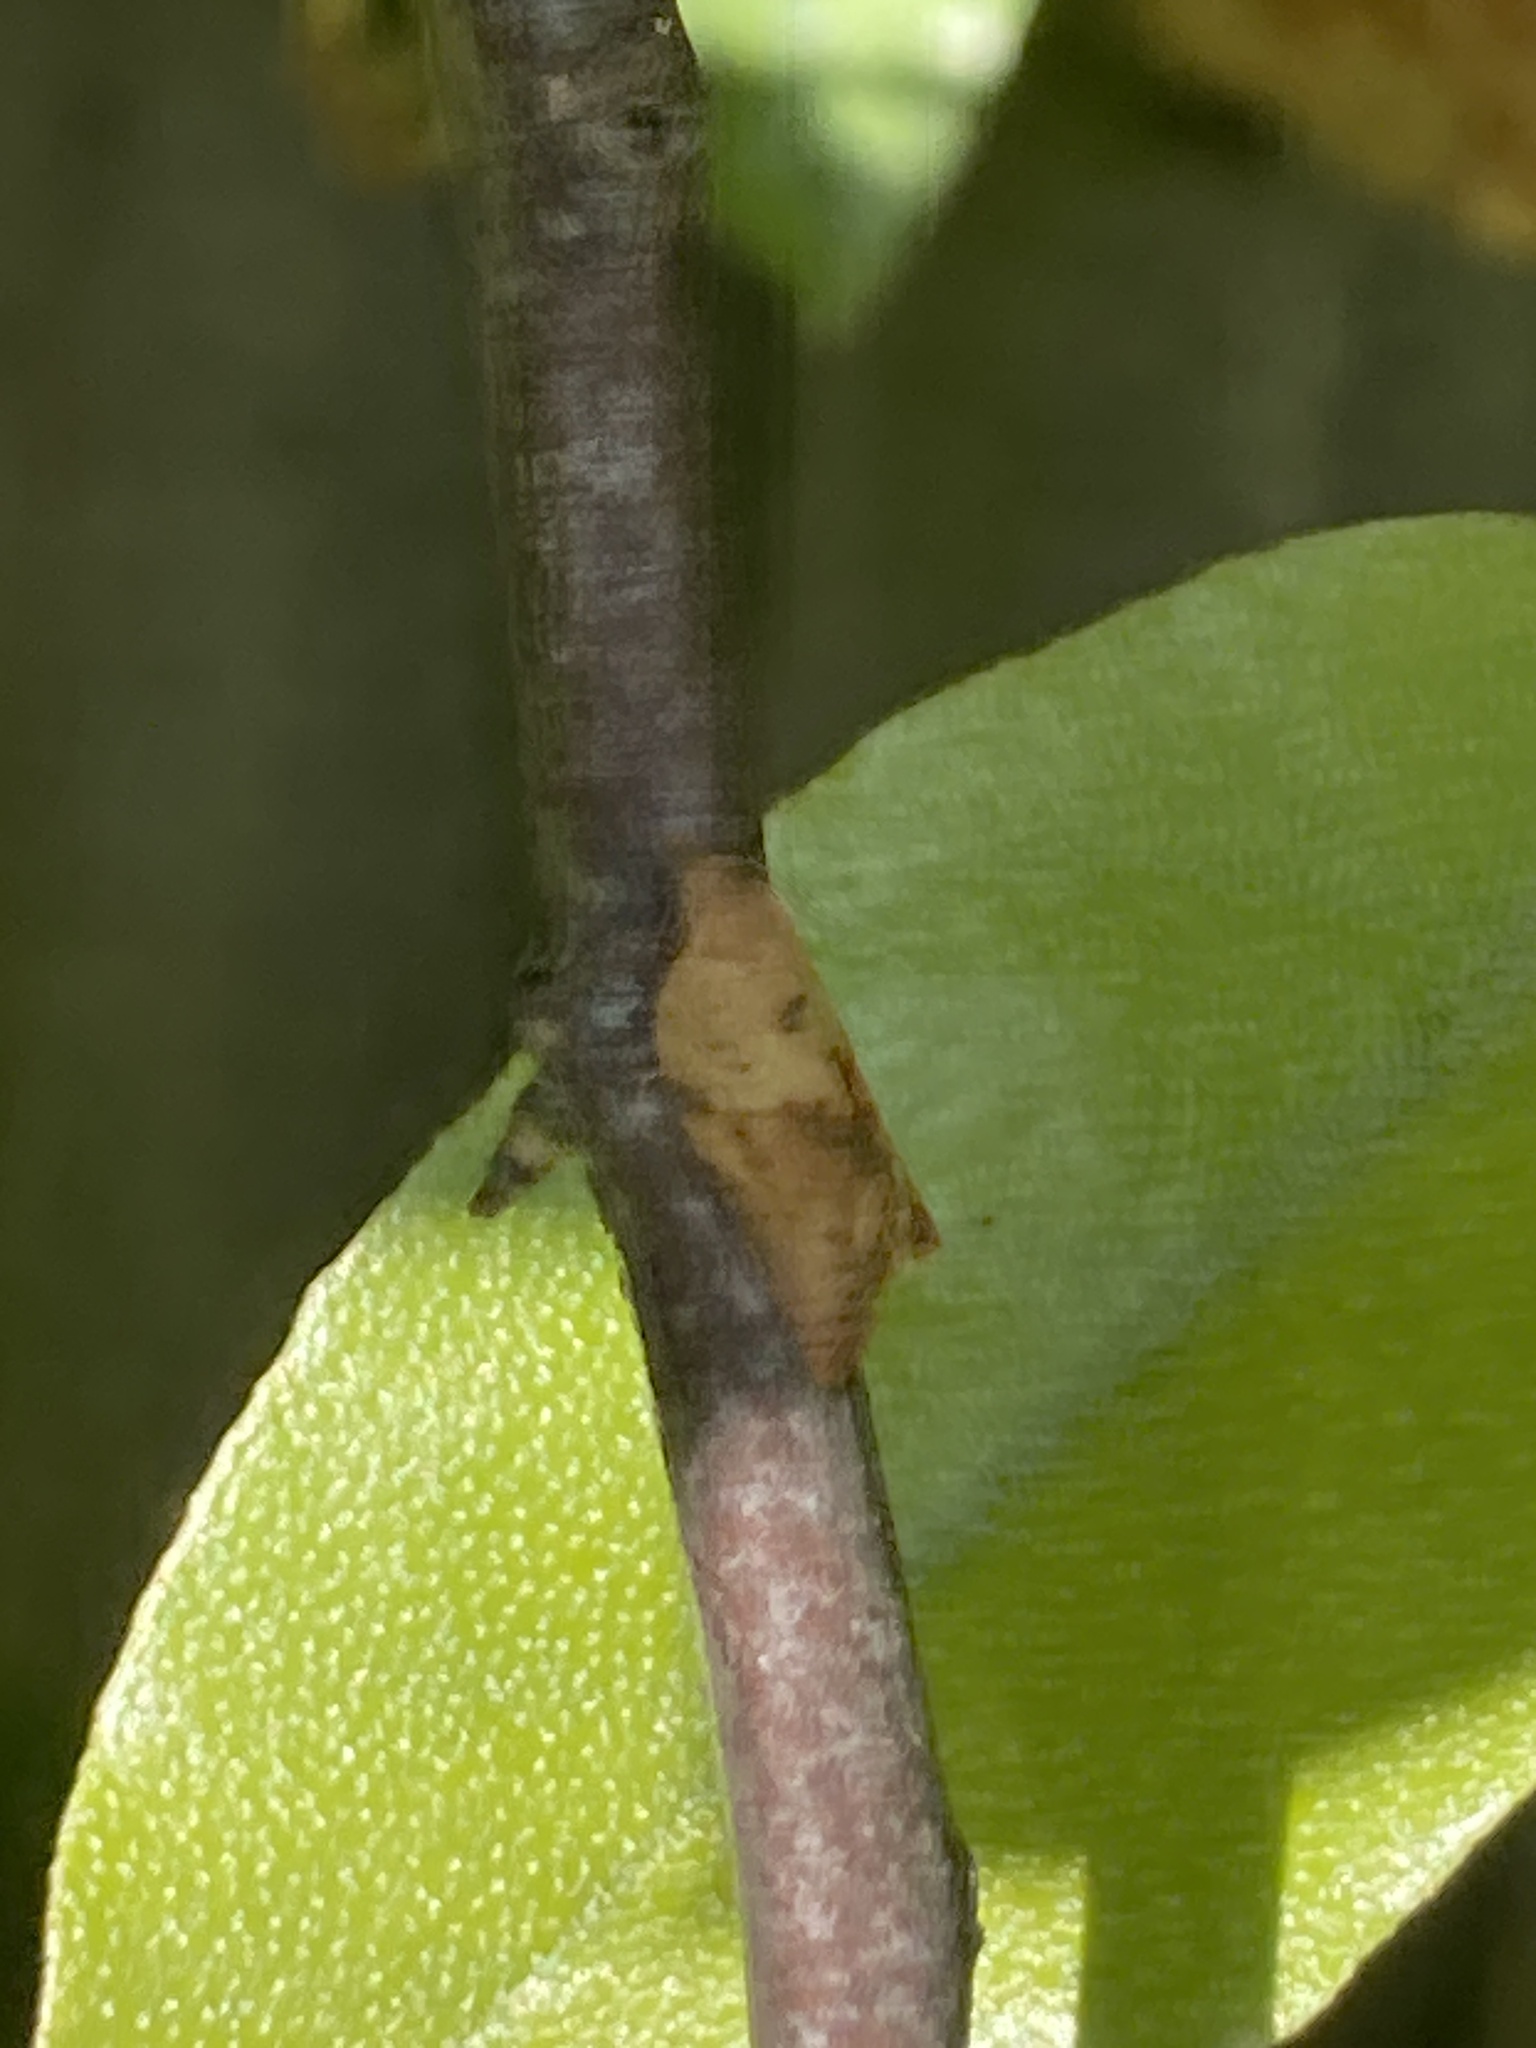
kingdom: Animalia
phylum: Arthropoda
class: Insecta
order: Lepidoptera
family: Tortricidae
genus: Epiphyas
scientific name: Epiphyas postvittana
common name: Light brown apple moth
